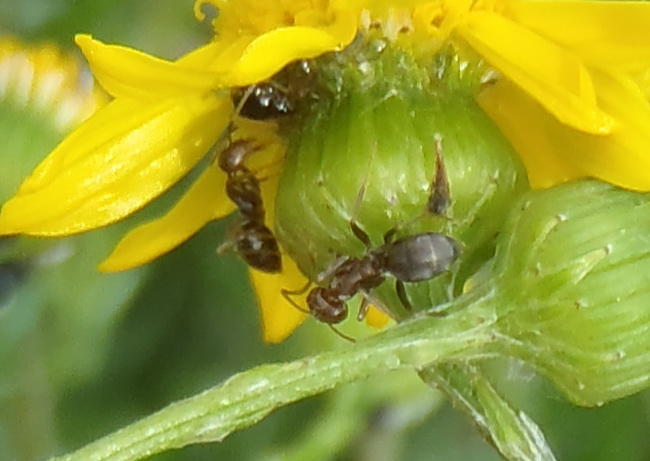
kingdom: Animalia
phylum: Arthropoda
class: Insecta
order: Hymenoptera
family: Formicidae
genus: Anoplolepis
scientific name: Anoplolepis rufescens
